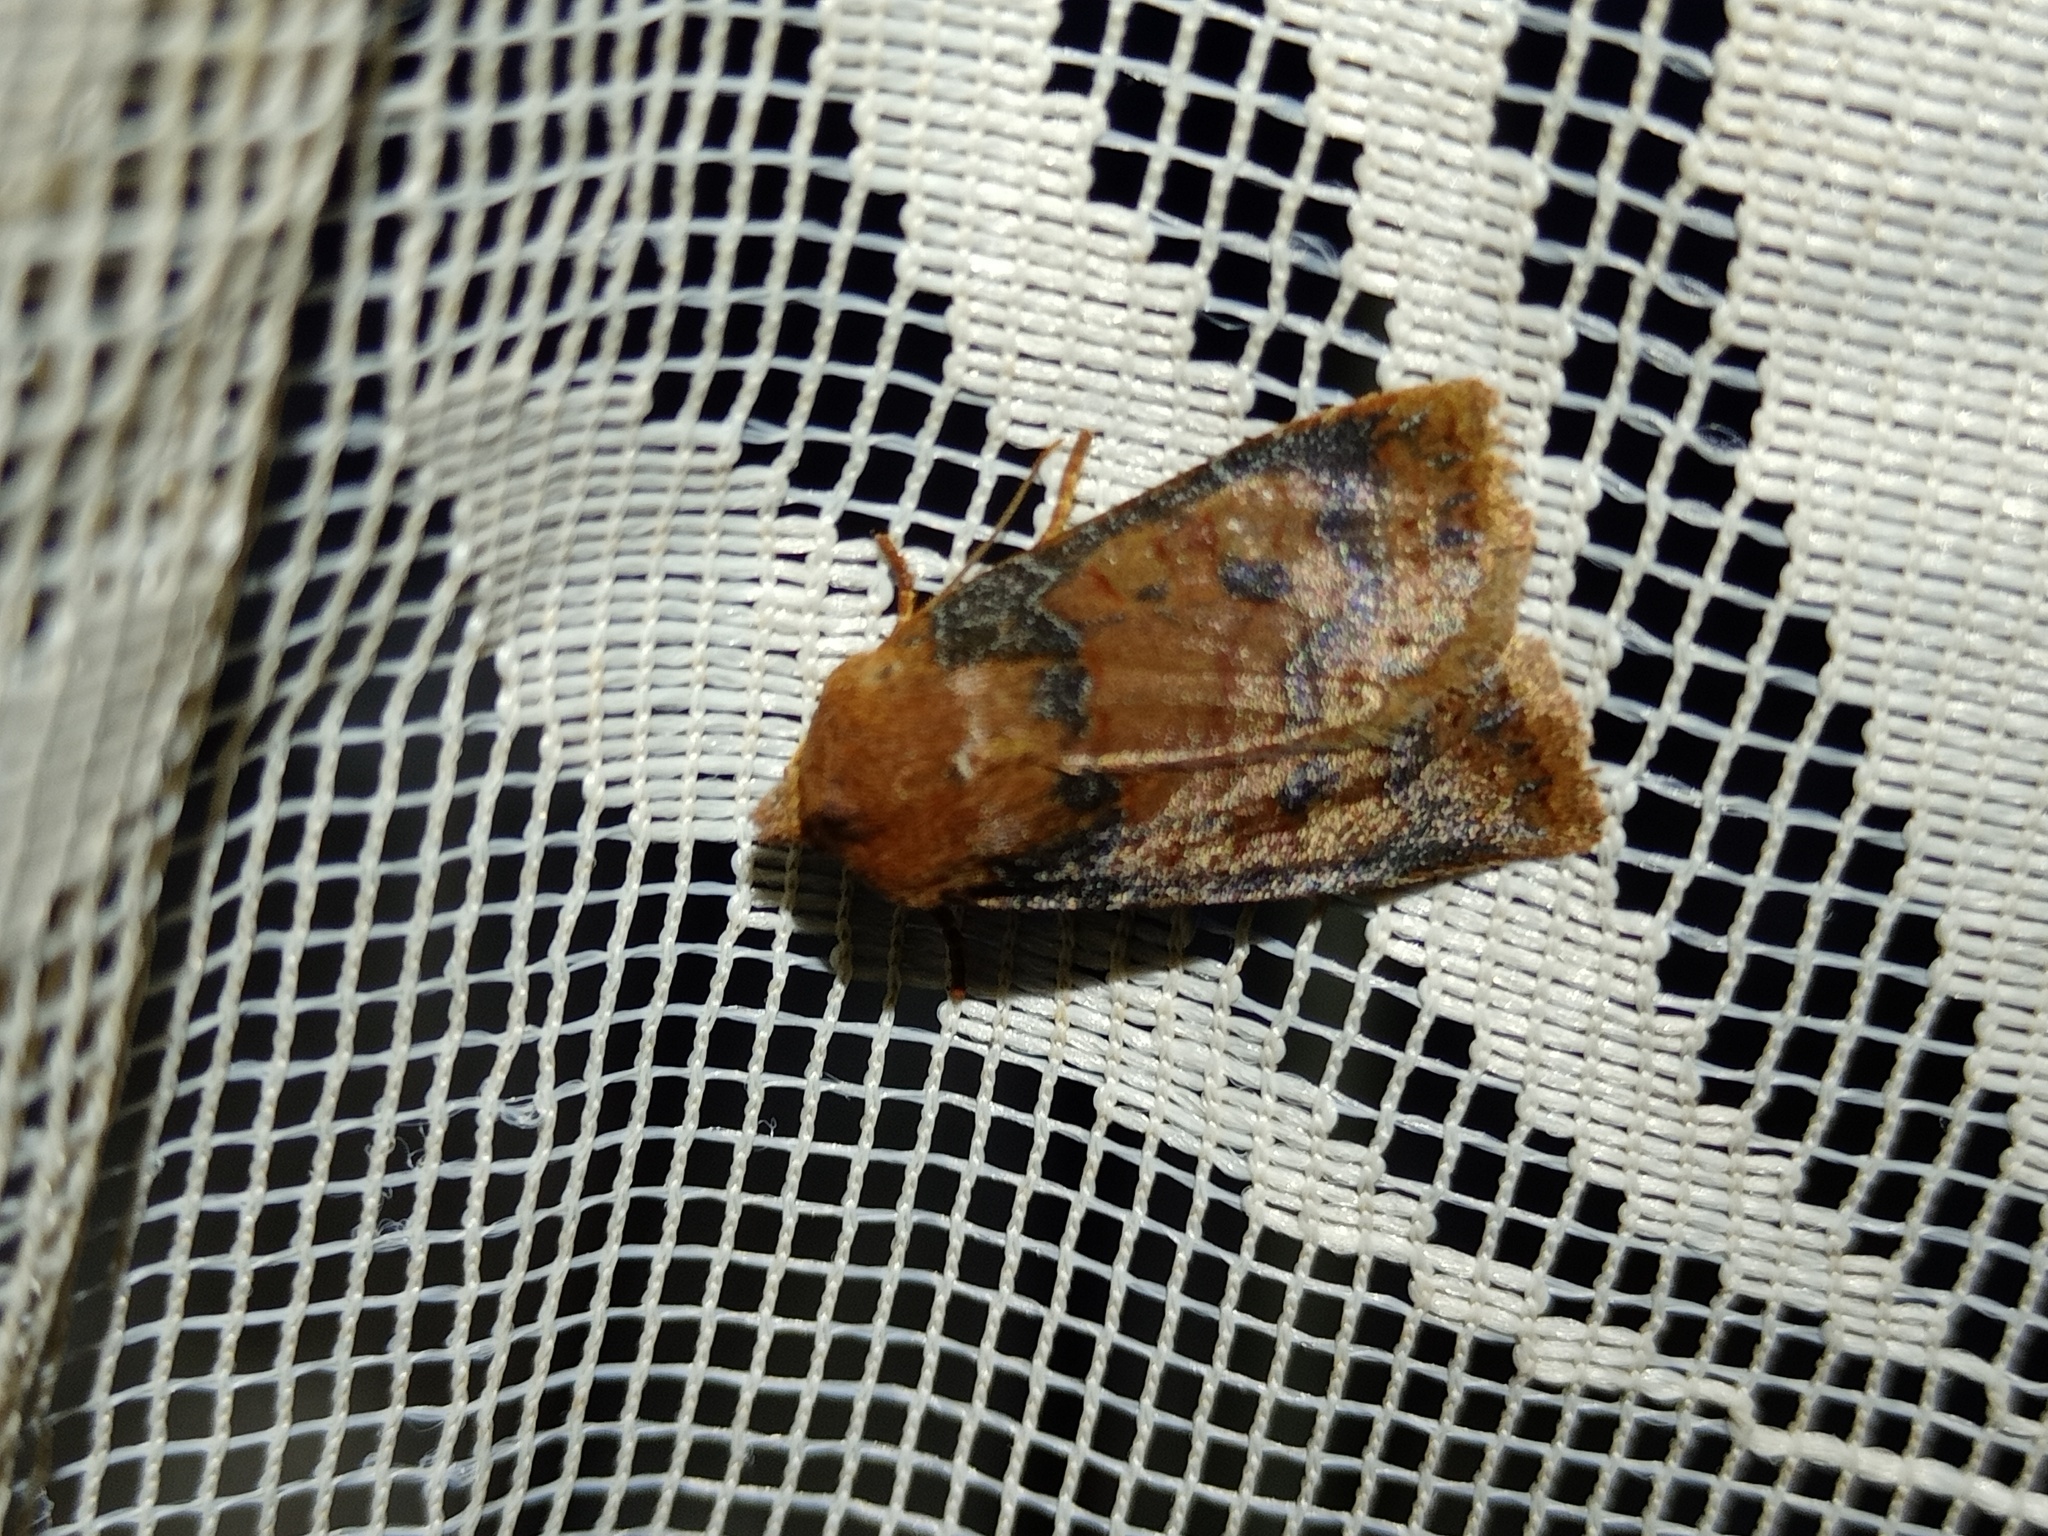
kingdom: Animalia
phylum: Arthropoda
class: Insecta
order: Lepidoptera
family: Noctuidae
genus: Conistra
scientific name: Conistra vaccinii
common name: Chestnut
